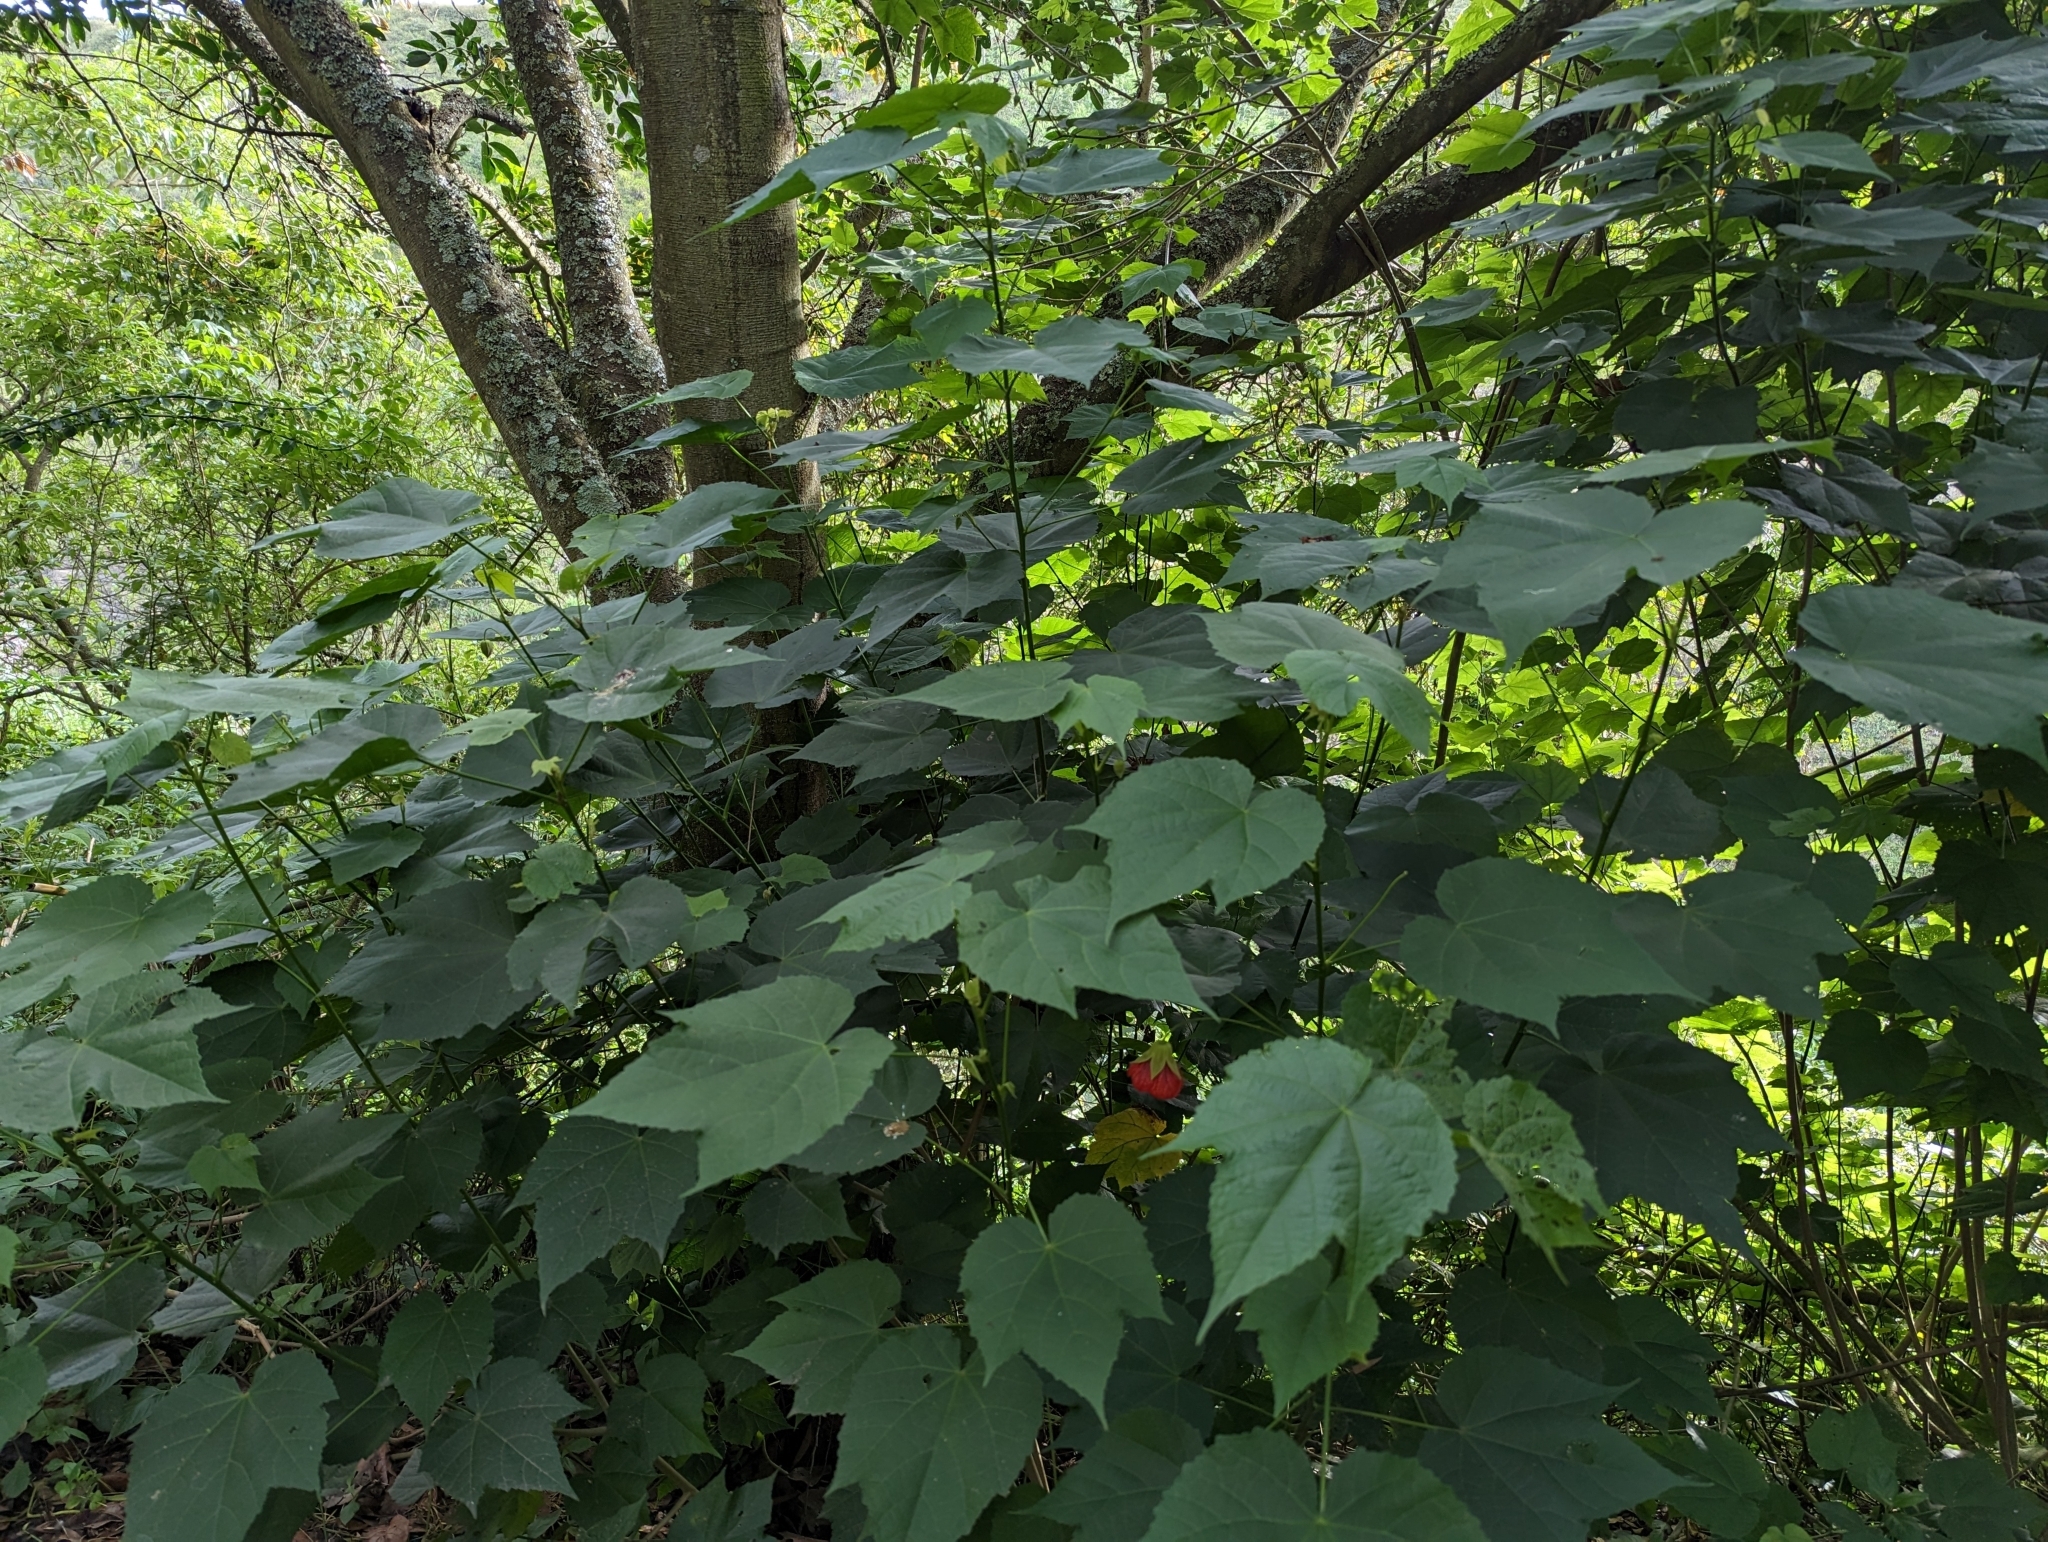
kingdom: Plantae
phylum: Tracheophyta
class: Magnoliopsida
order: Malvales
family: Malvaceae
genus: Callianthe
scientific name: Callianthe picta
